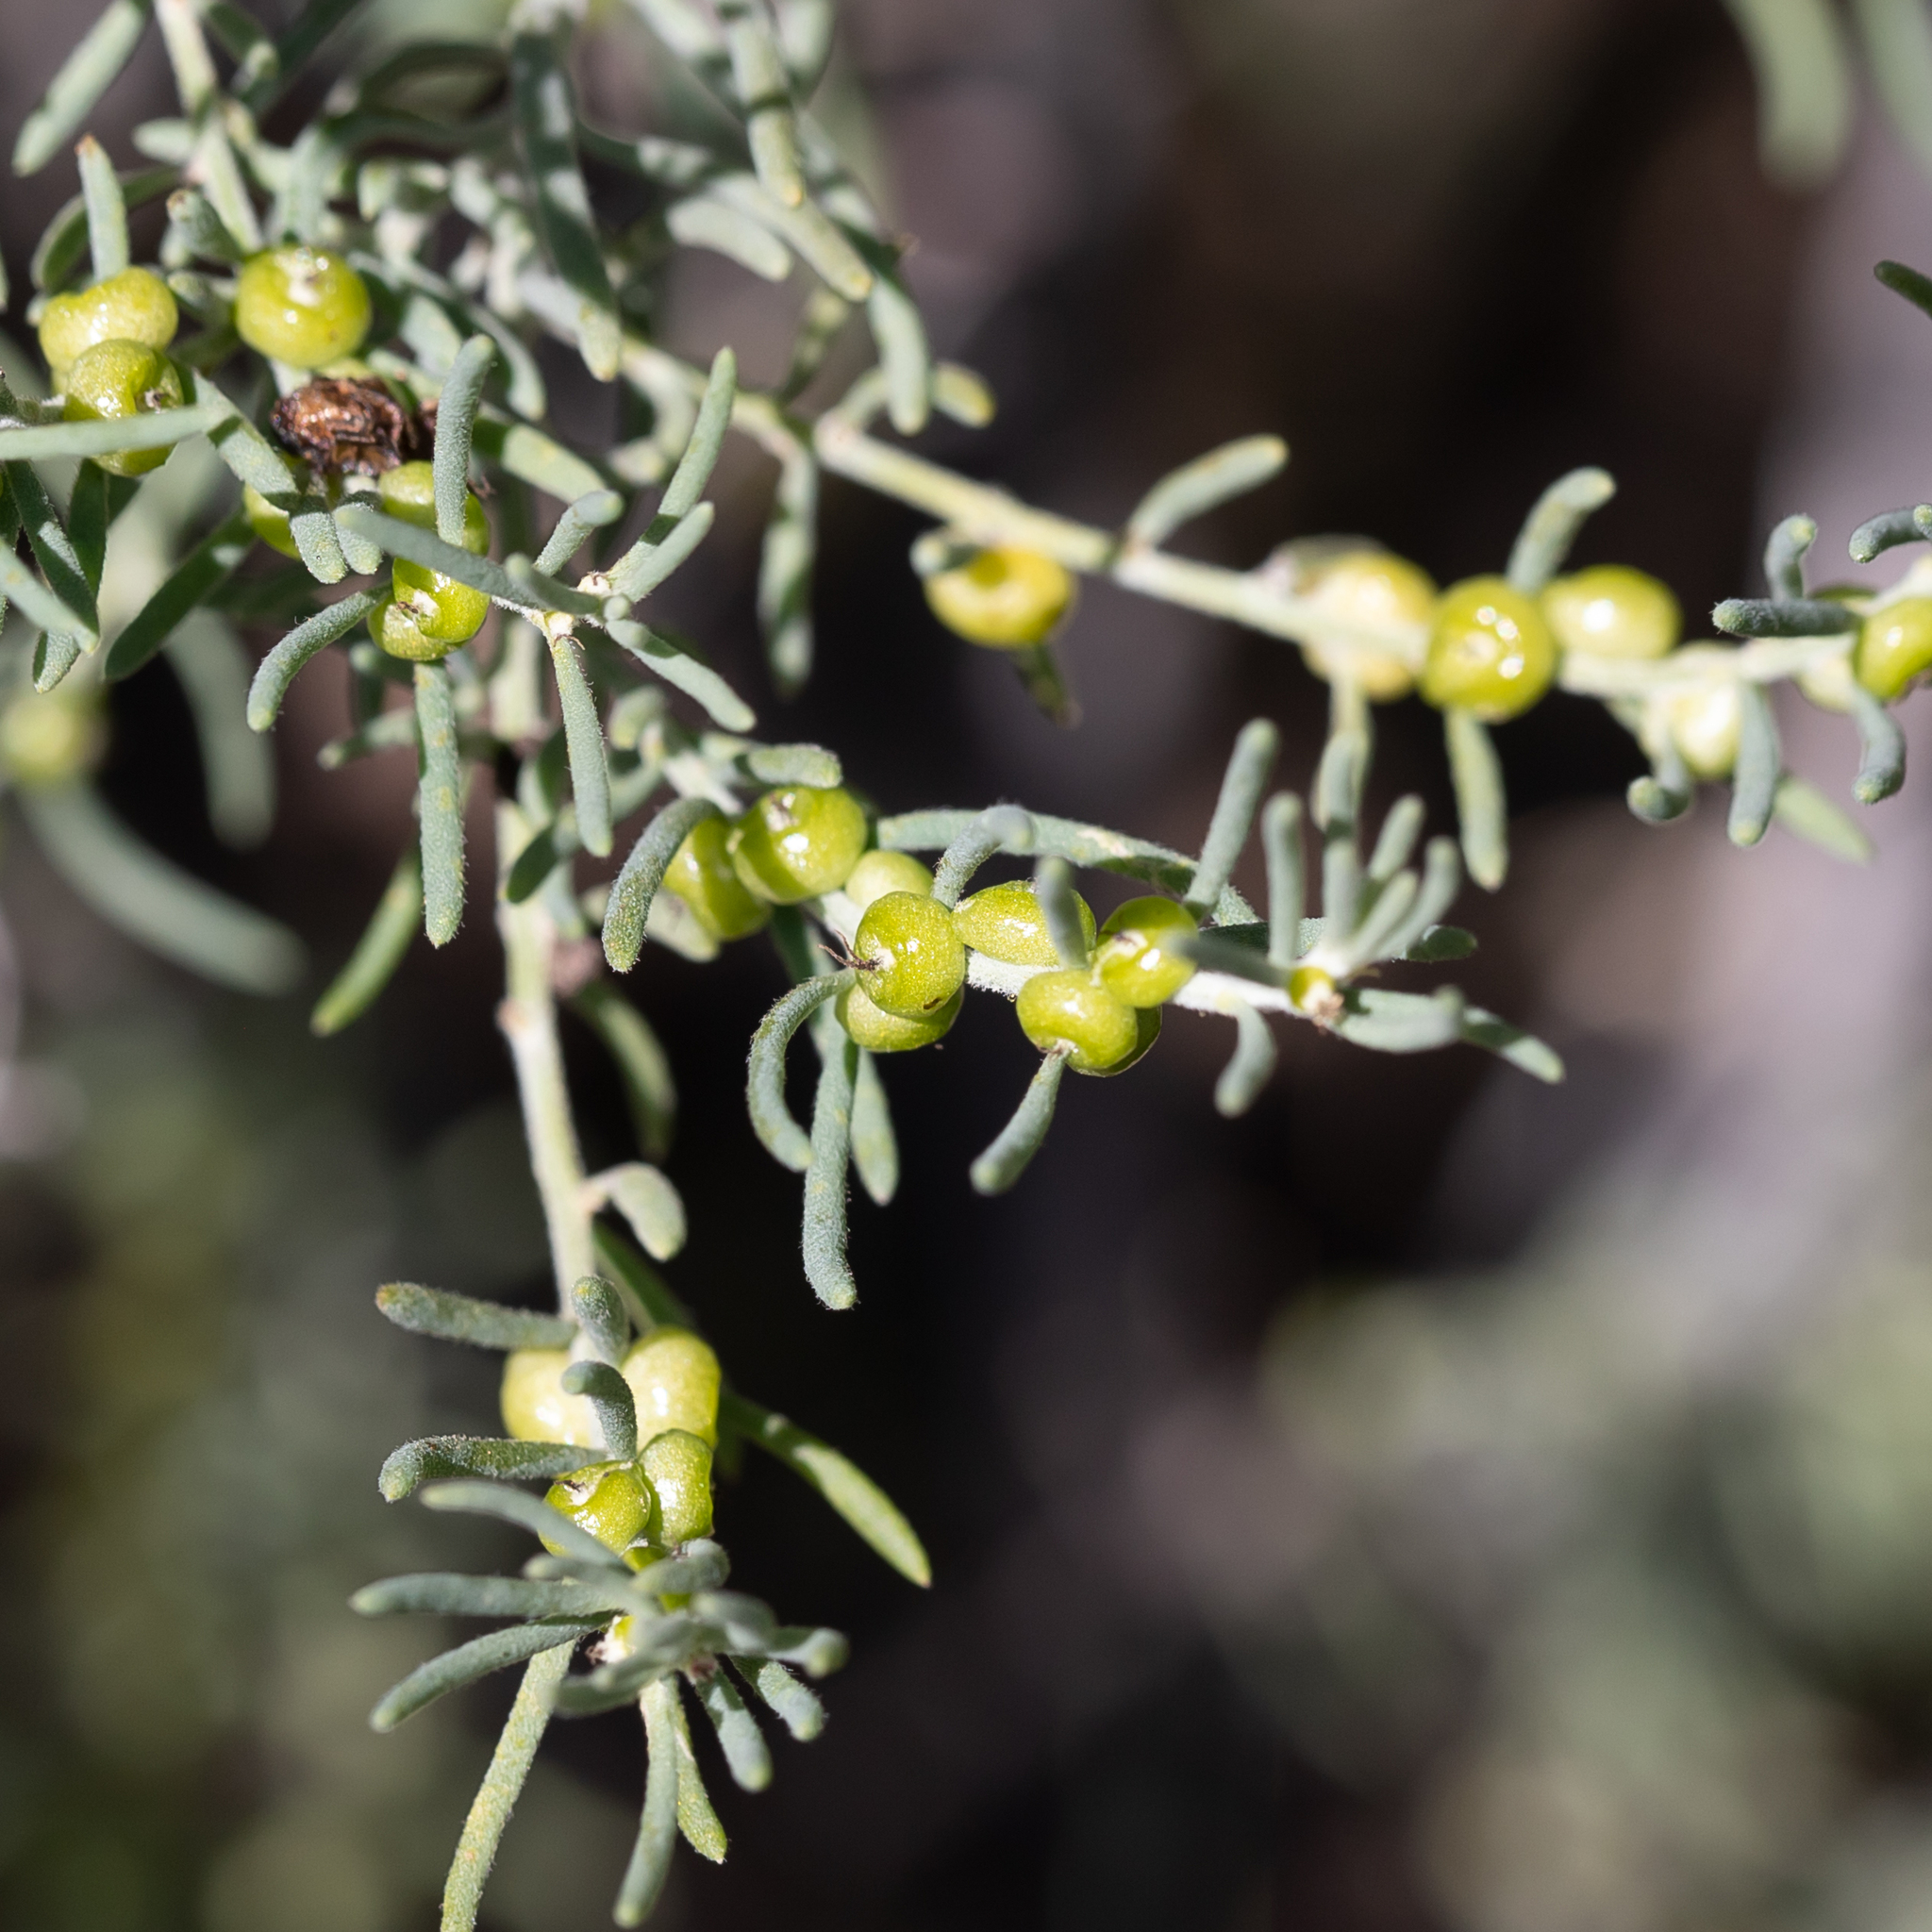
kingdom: Plantae
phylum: Tracheophyta
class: Magnoliopsida
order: Caryophyllales
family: Amaranthaceae
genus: Enchylaena
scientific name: Enchylaena tomentosa
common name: Ruby saltbush
